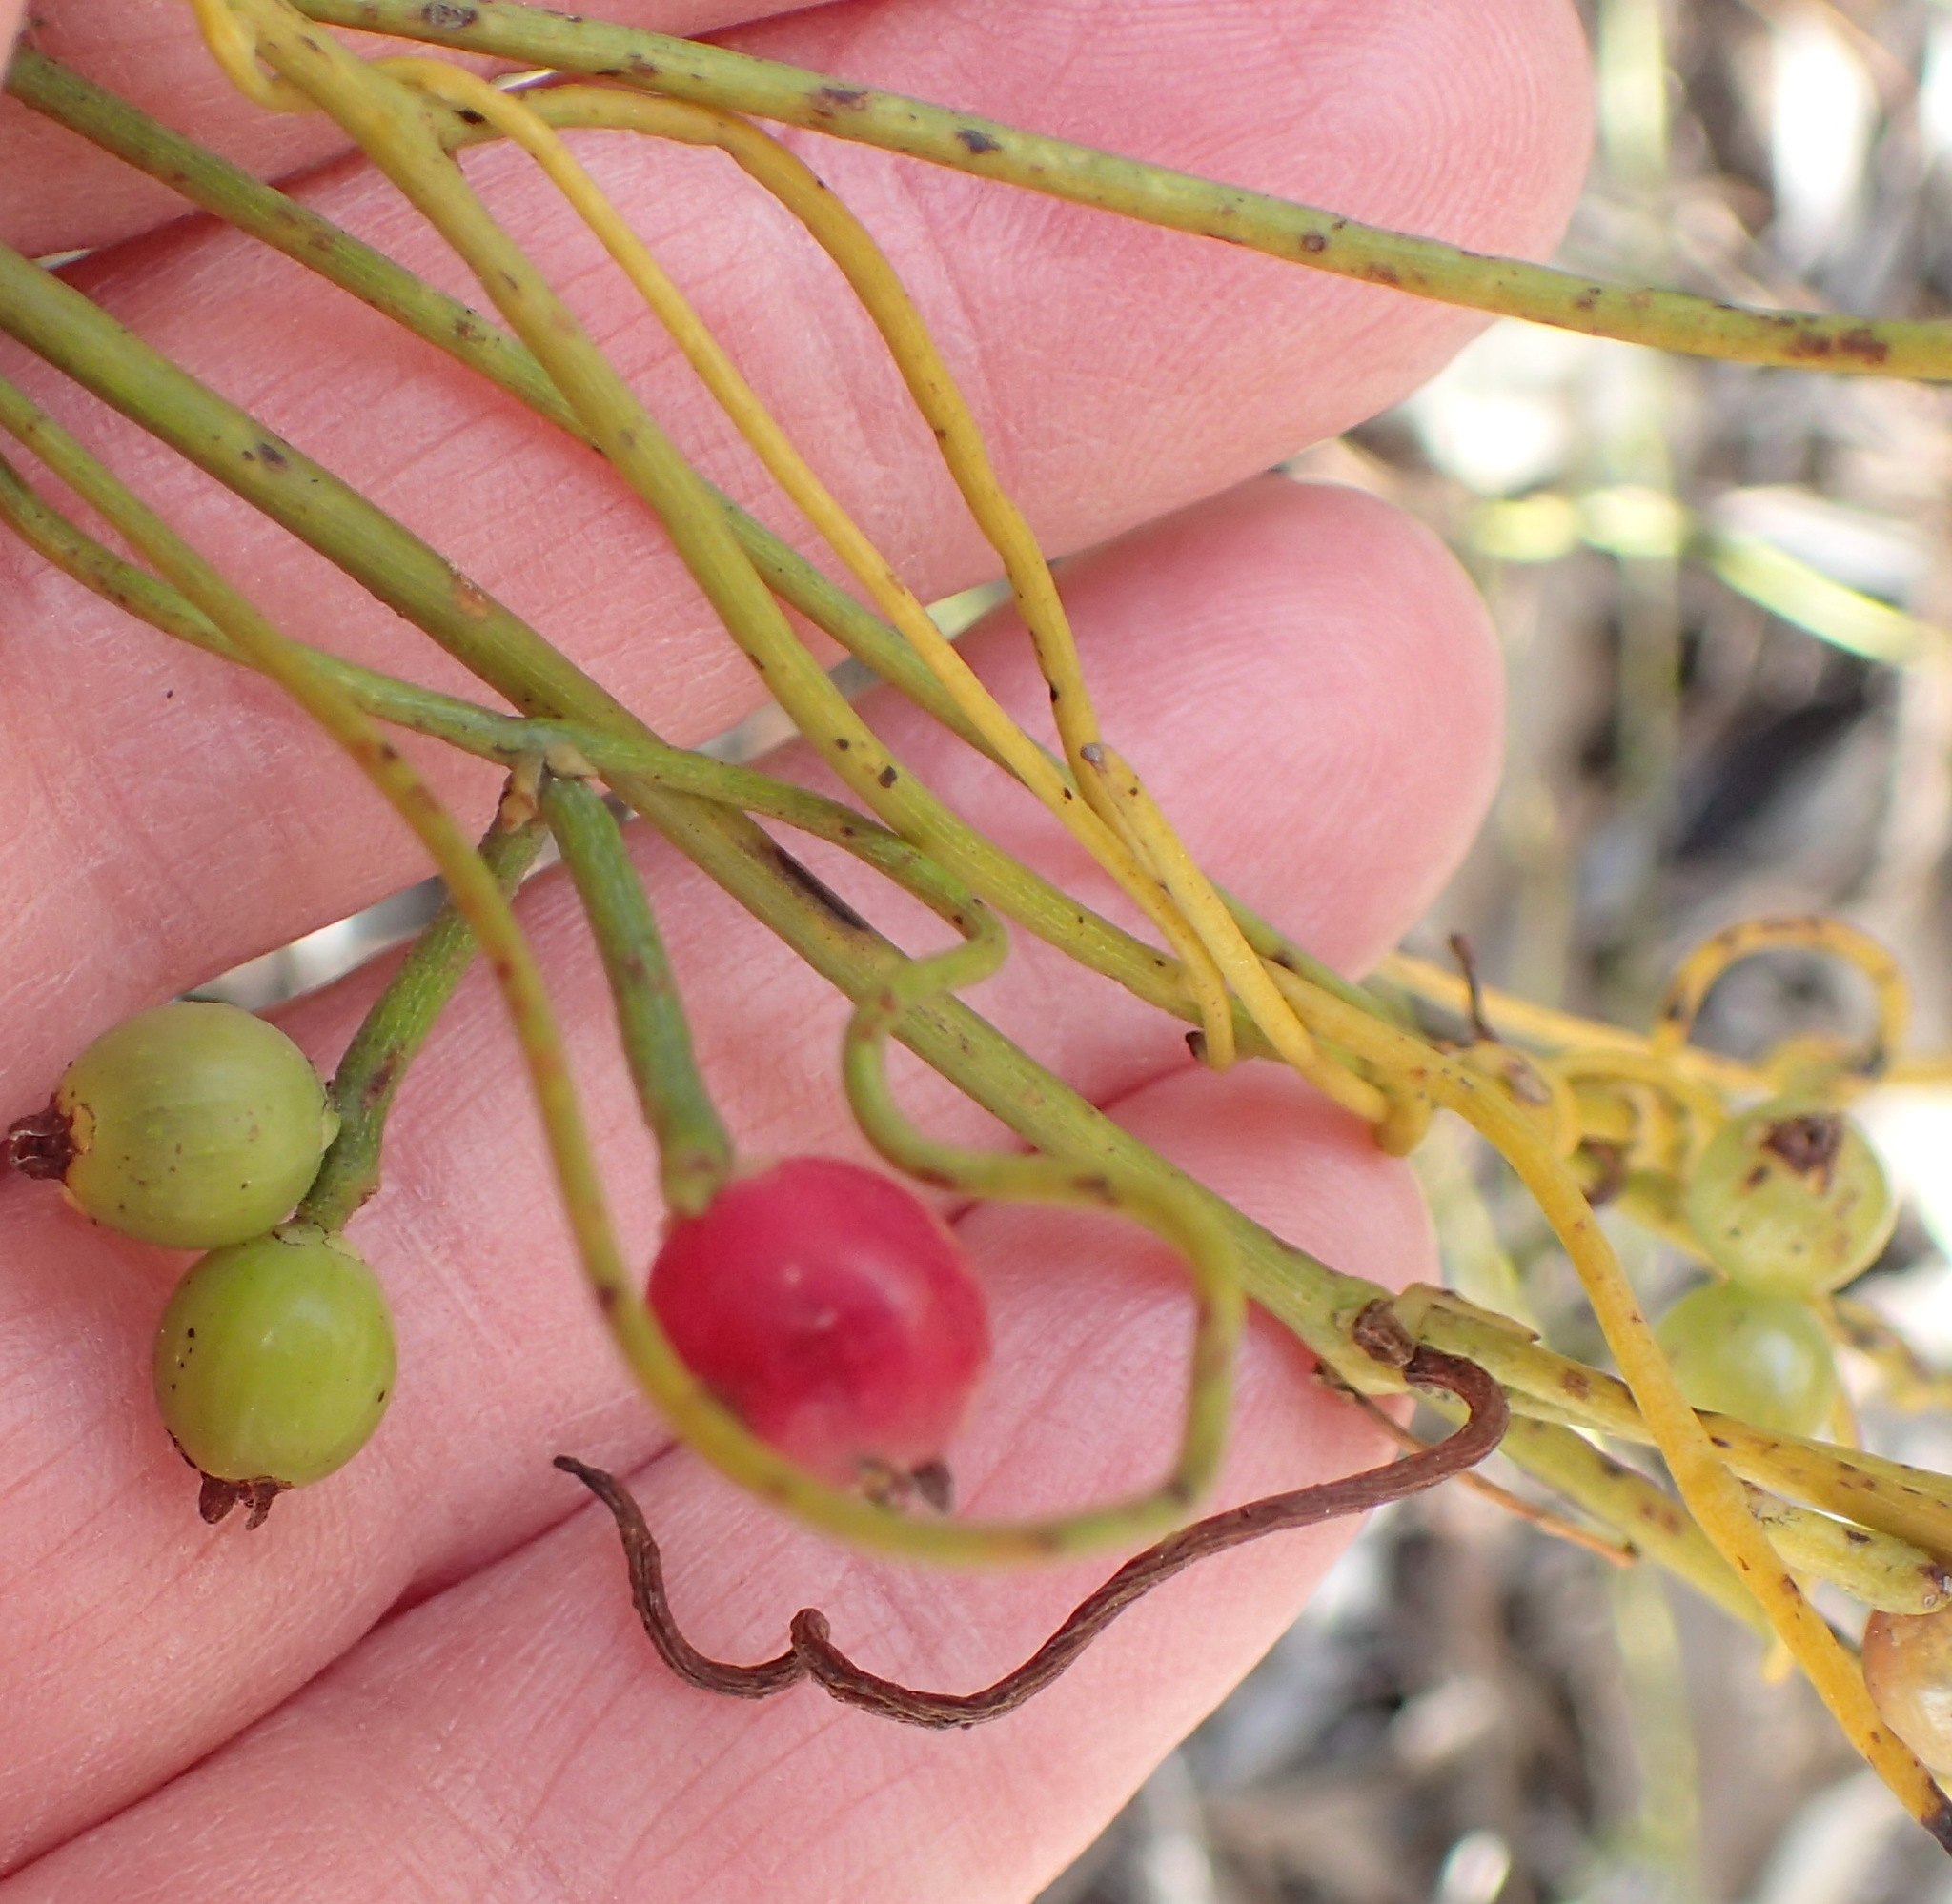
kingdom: Plantae
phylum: Tracheophyta
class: Magnoliopsida
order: Laurales
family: Lauraceae
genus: Cassytha
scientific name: Cassytha ciliolata
